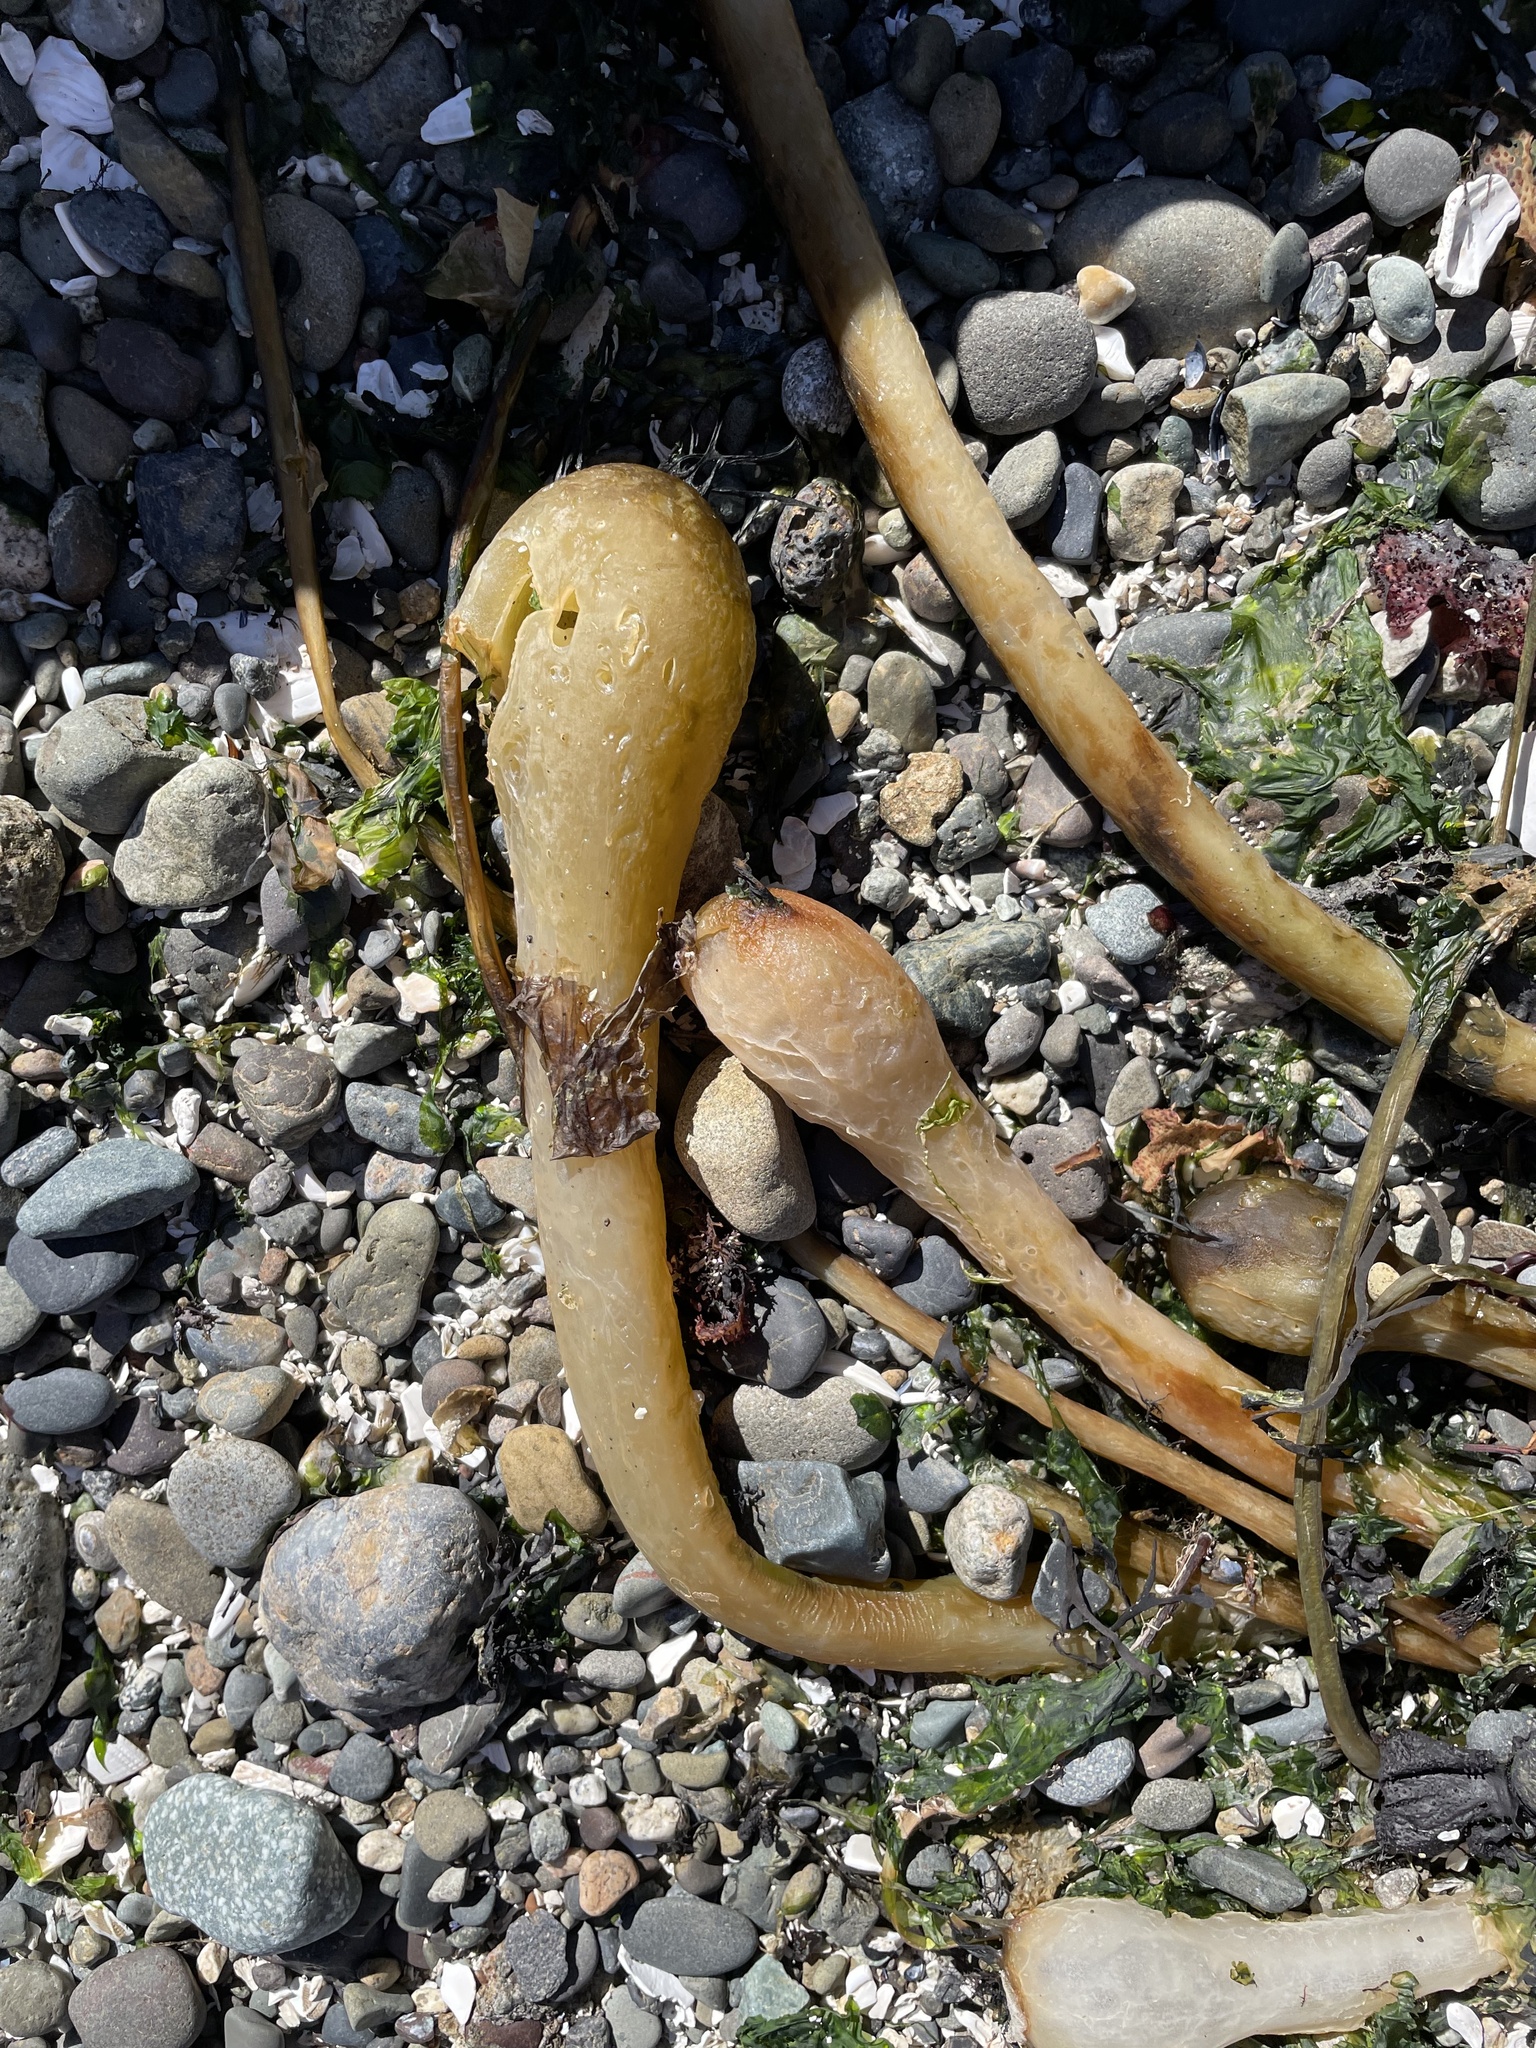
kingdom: Chromista
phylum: Ochrophyta
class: Phaeophyceae
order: Laminariales
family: Laminariaceae
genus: Nereocystis
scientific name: Nereocystis luetkeana
